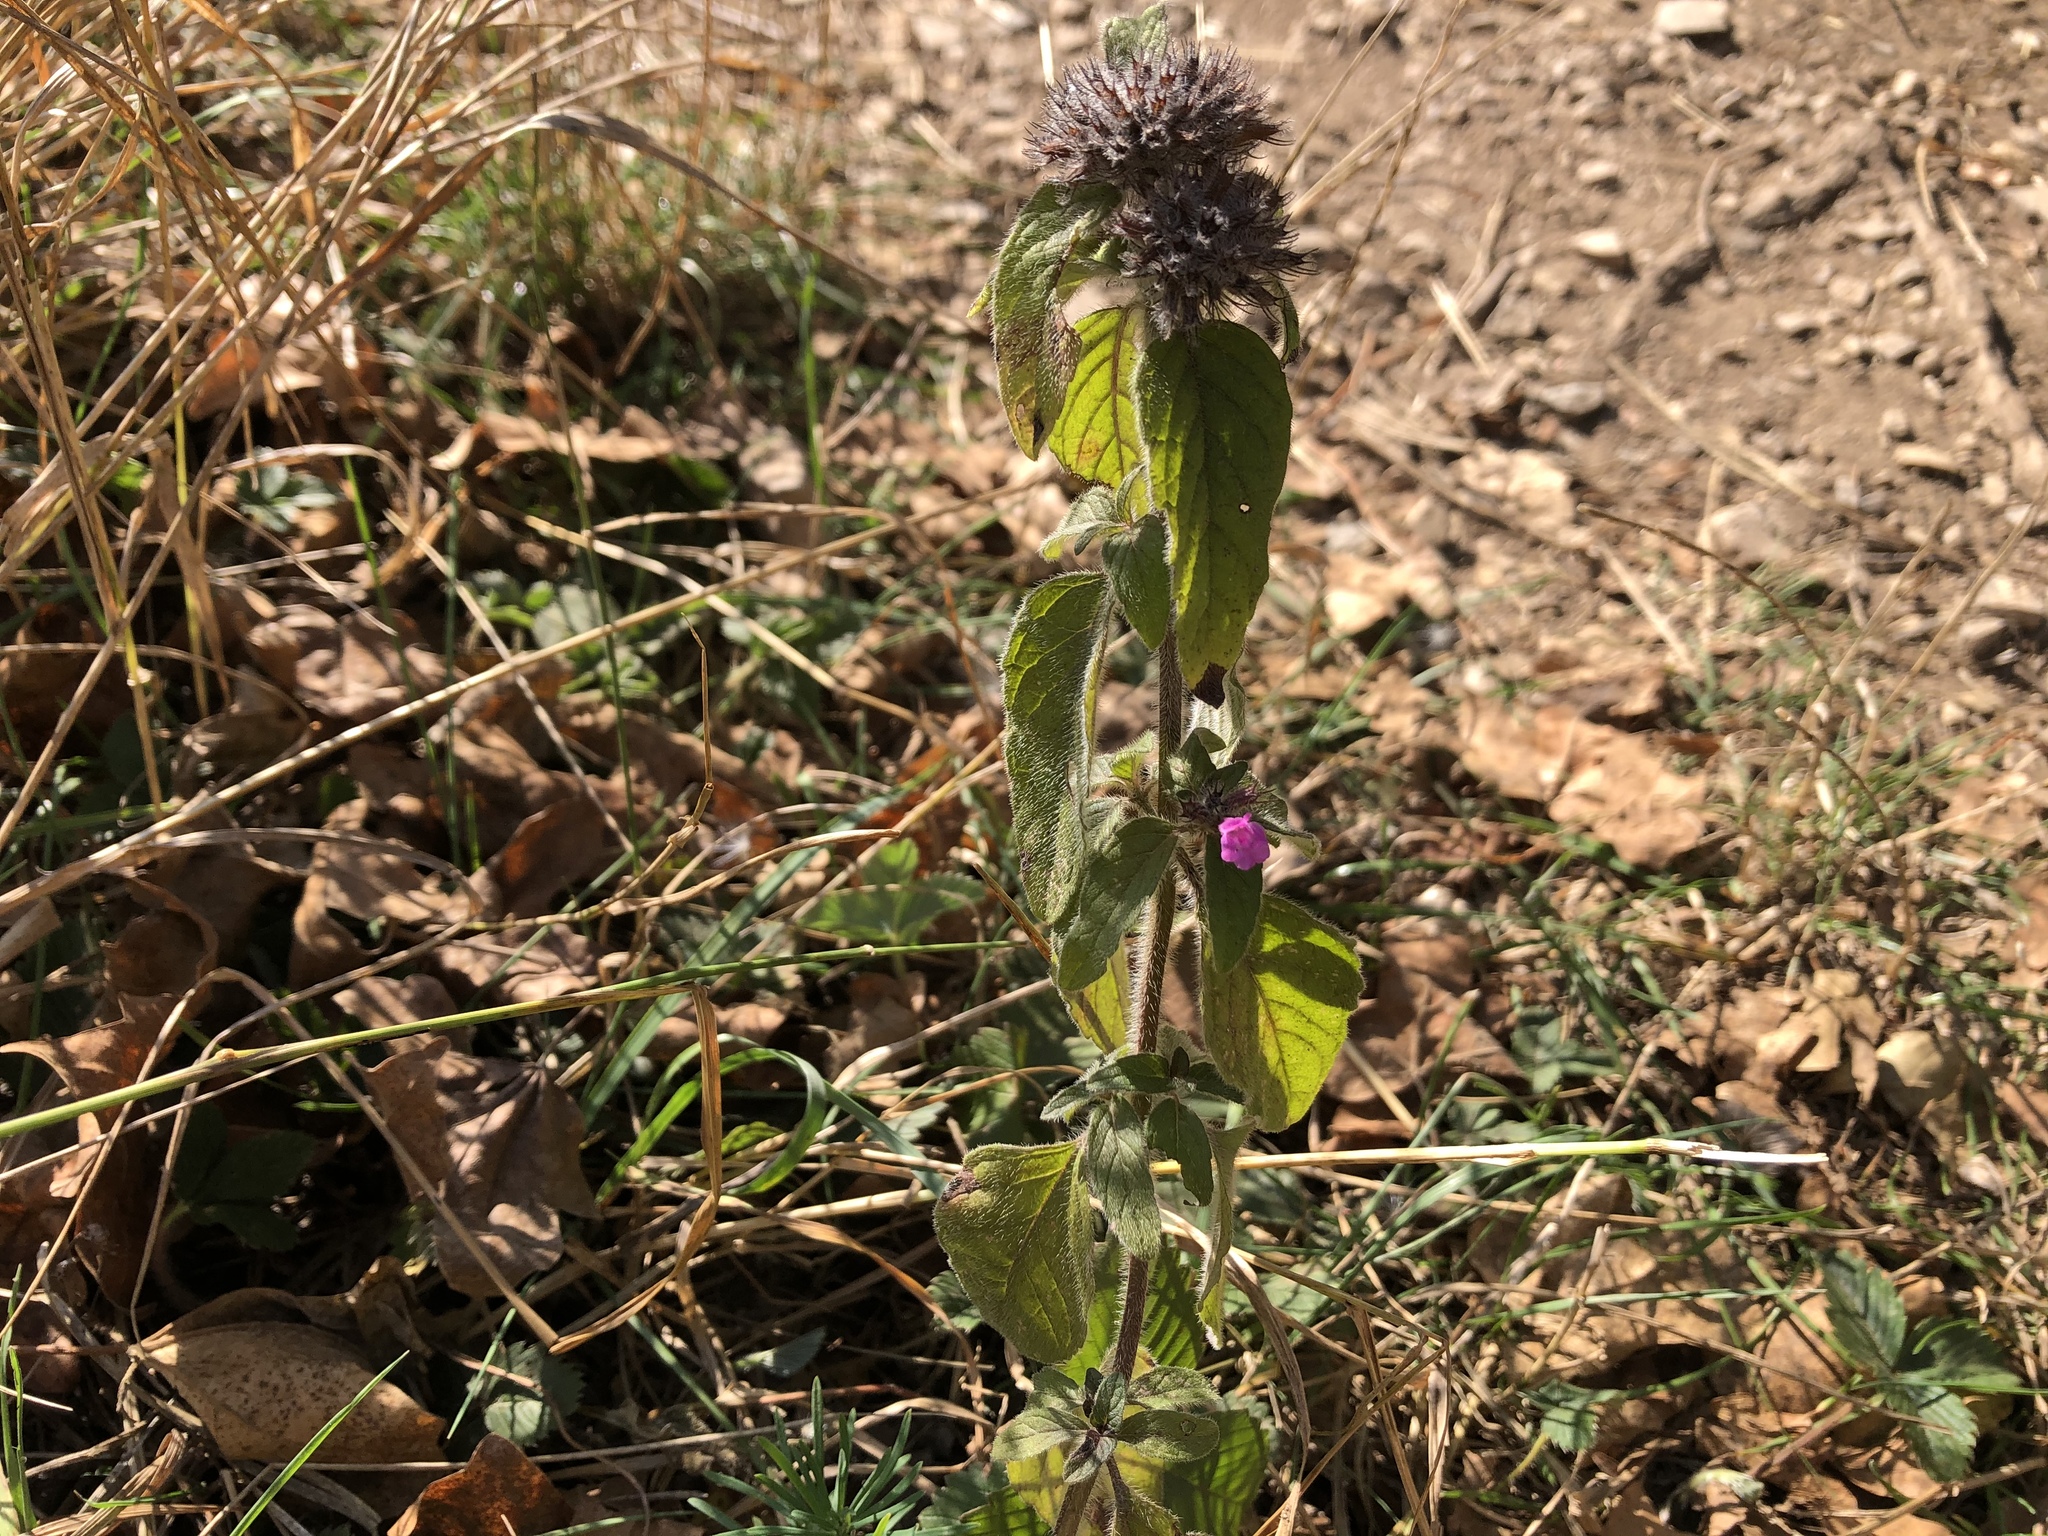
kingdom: Plantae
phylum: Tracheophyta
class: Magnoliopsida
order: Lamiales
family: Lamiaceae
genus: Clinopodium
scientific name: Clinopodium vulgare
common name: Wild basil
